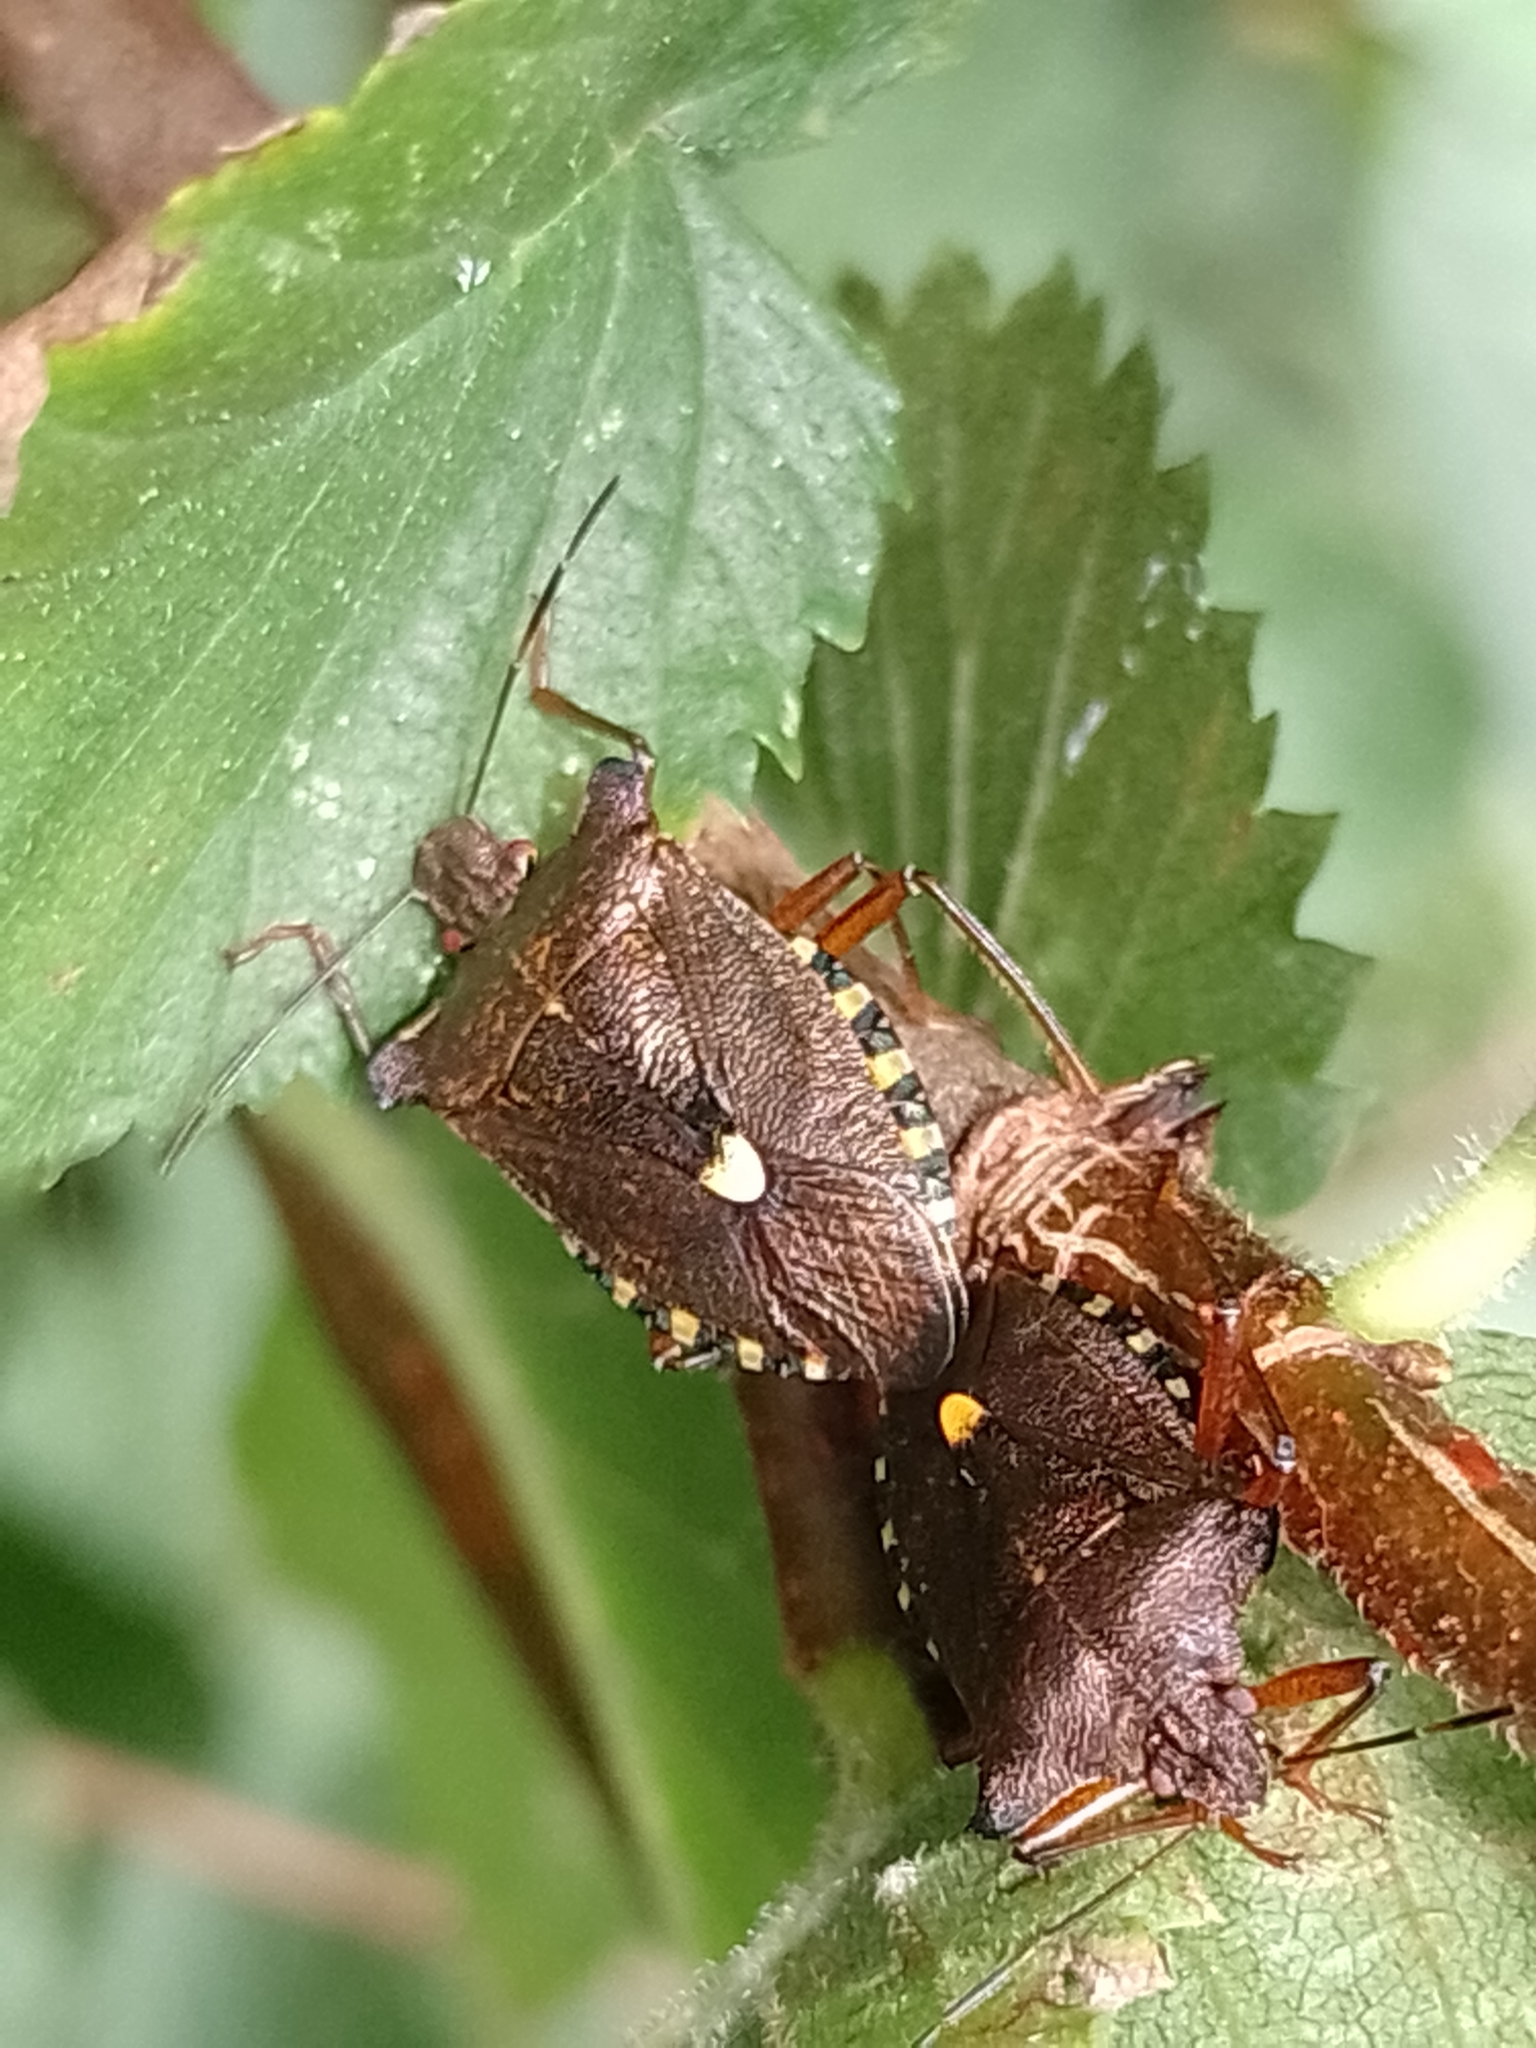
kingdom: Animalia
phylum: Arthropoda
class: Insecta
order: Hemiptera
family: Pentatomidae
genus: Pentatoma
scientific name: Pentatoma rufipes
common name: Forest bug
